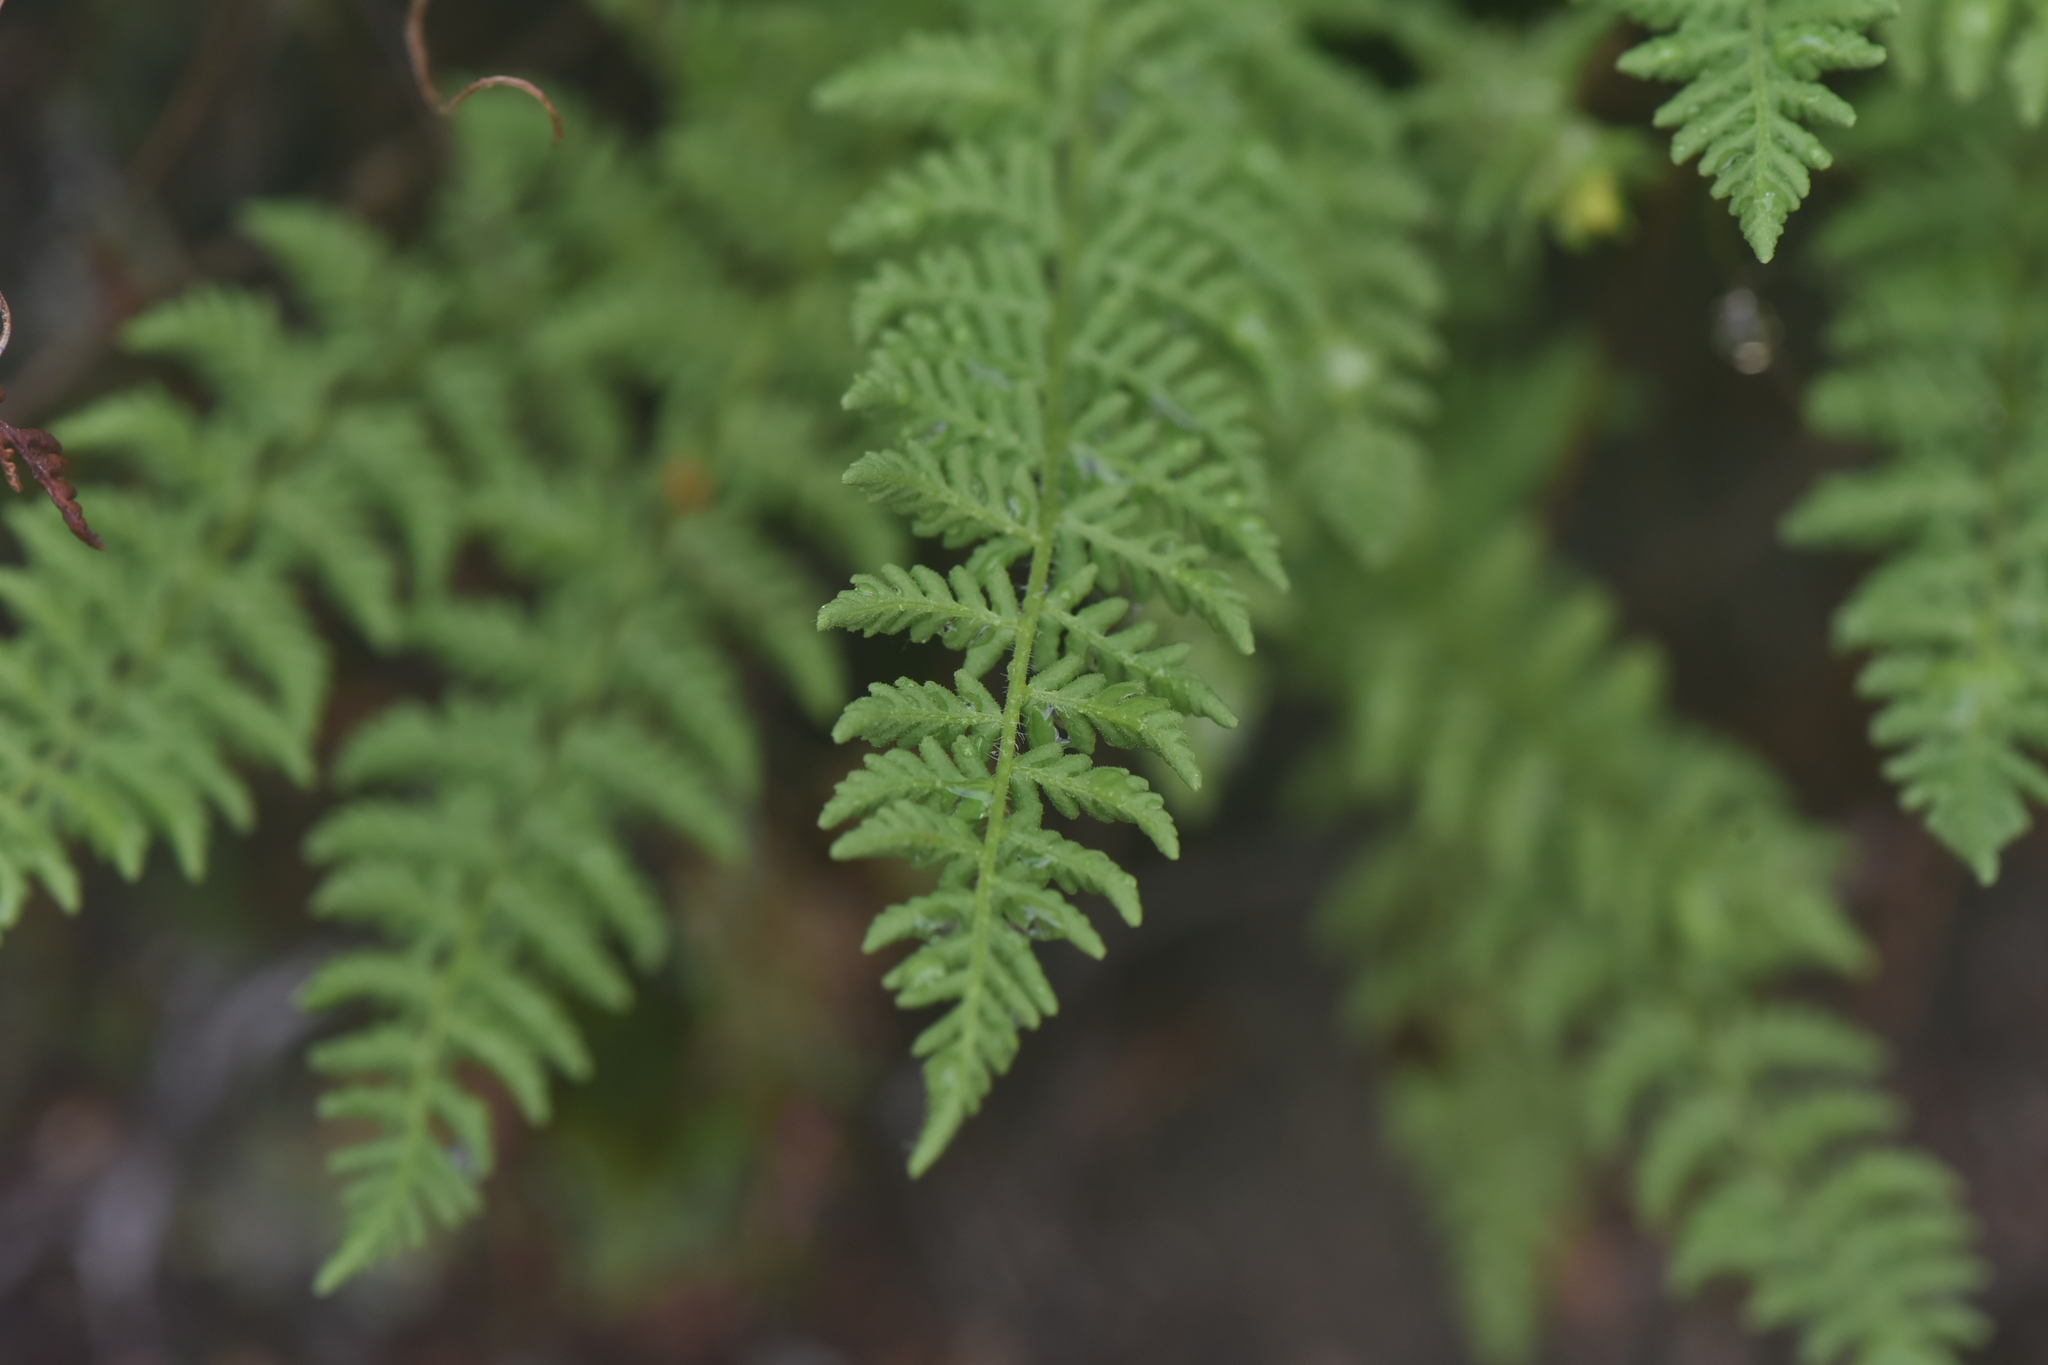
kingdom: Plantae
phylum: Tracheophyta
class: Polypodiopsida
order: Polypodiales
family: Woodsiaceae
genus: Physematium
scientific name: Physematium scopulinum
